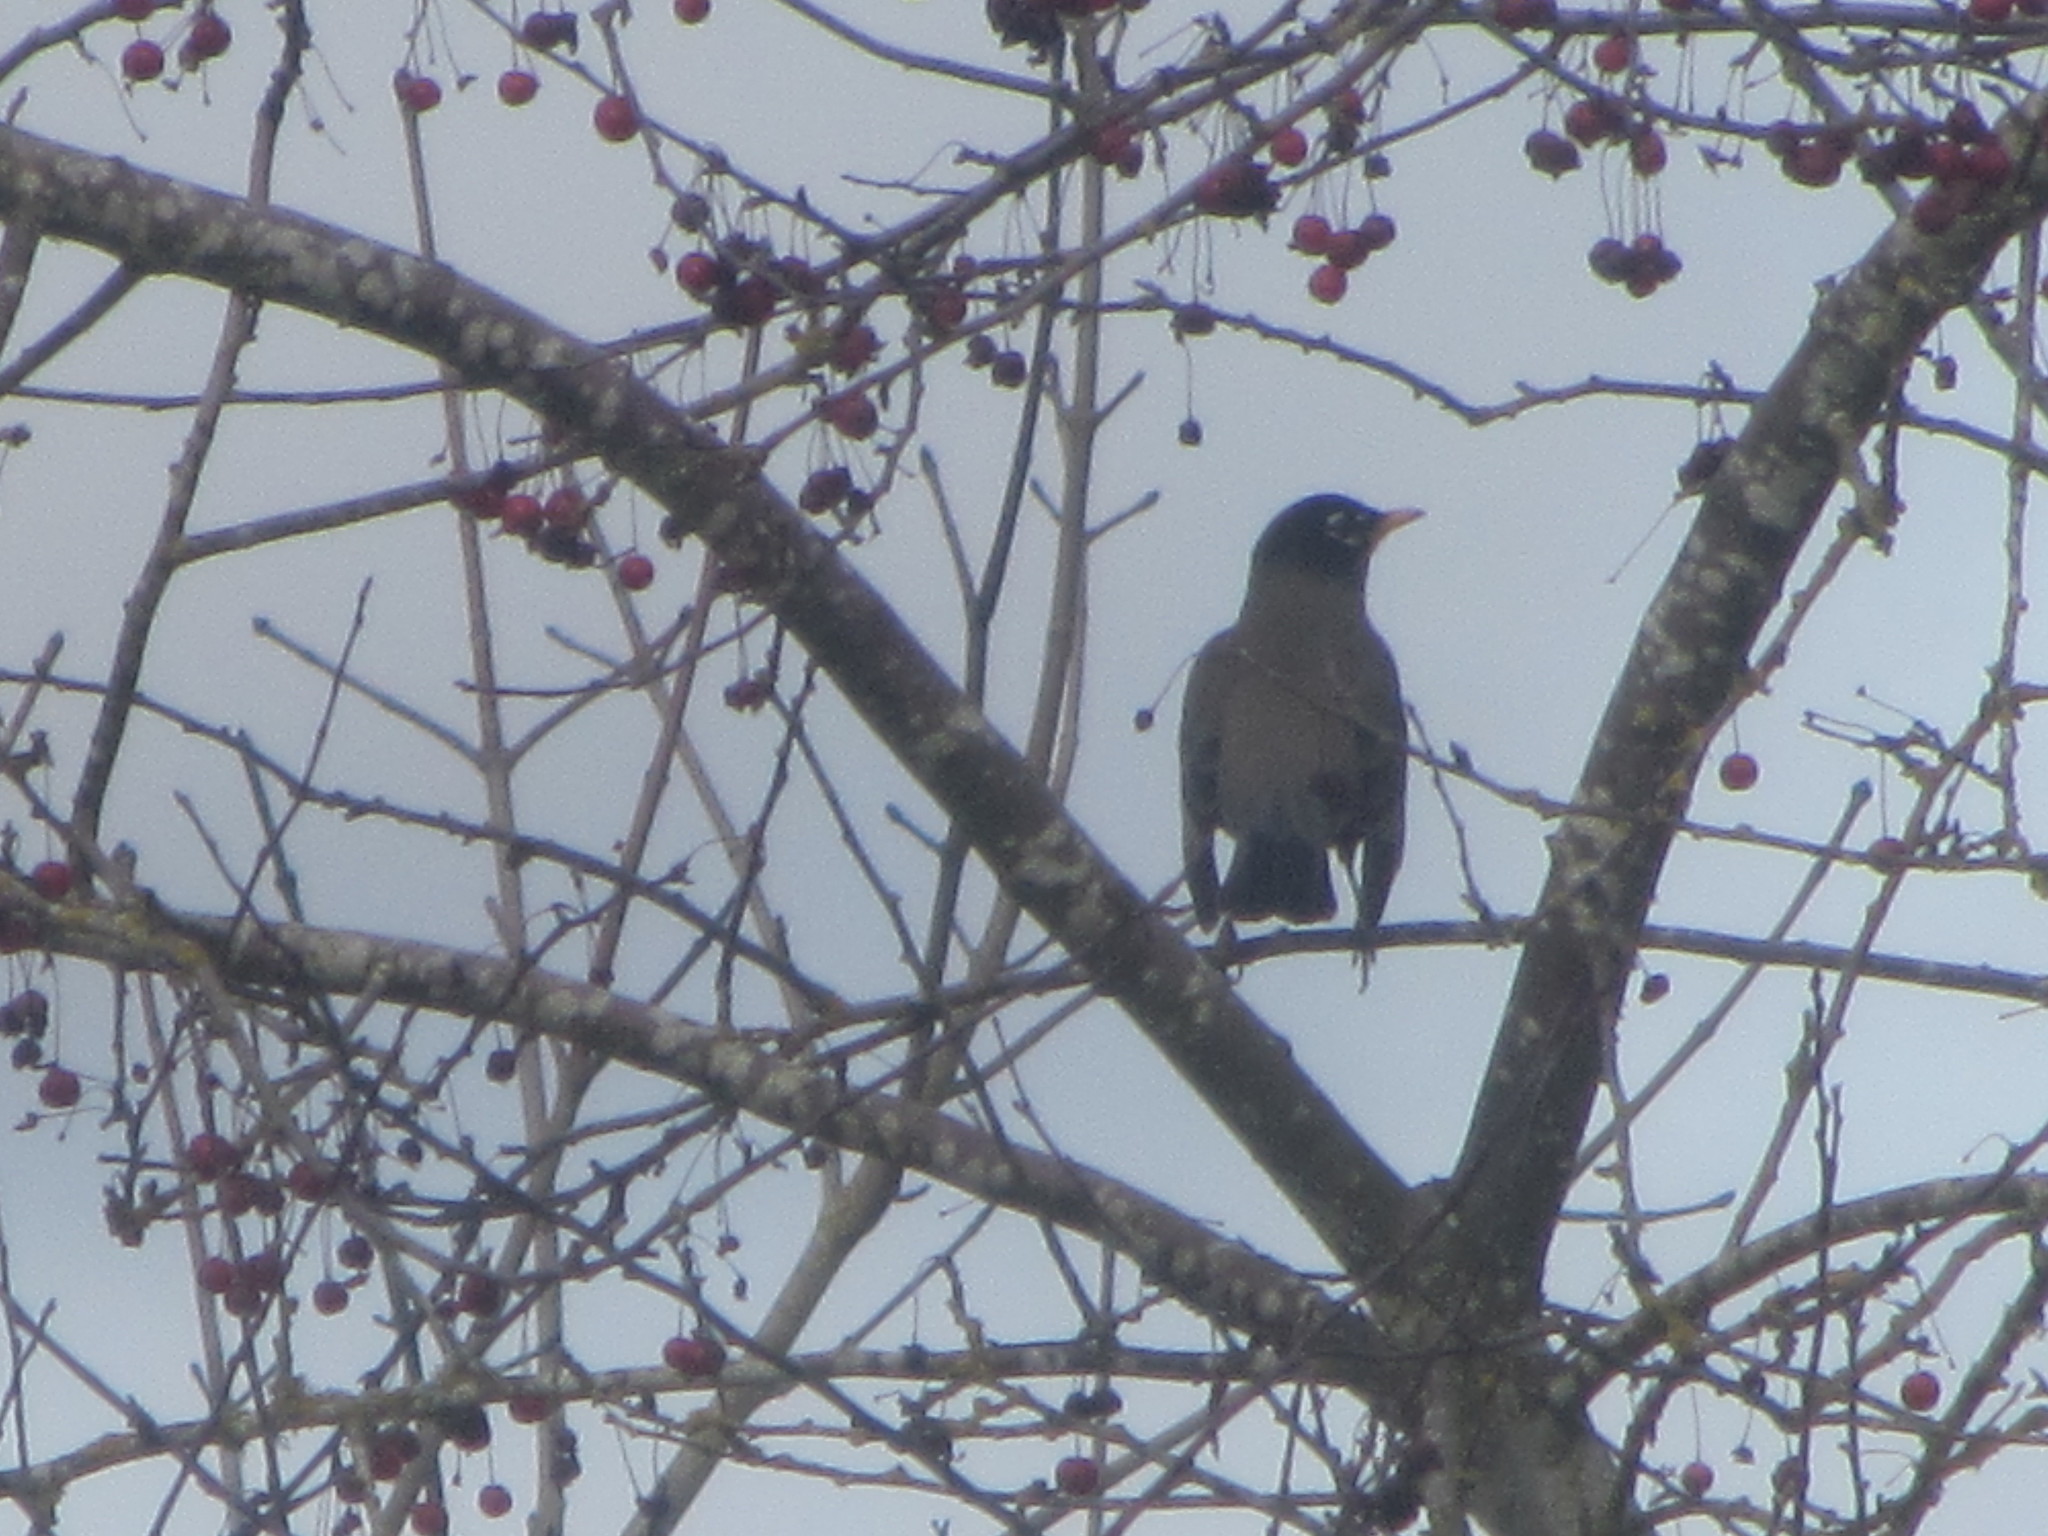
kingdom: Animalia
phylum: Chordata
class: Aves
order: Passeriformes
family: Turdidae
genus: Turdus
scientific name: Turdus migratorius
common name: American robin
